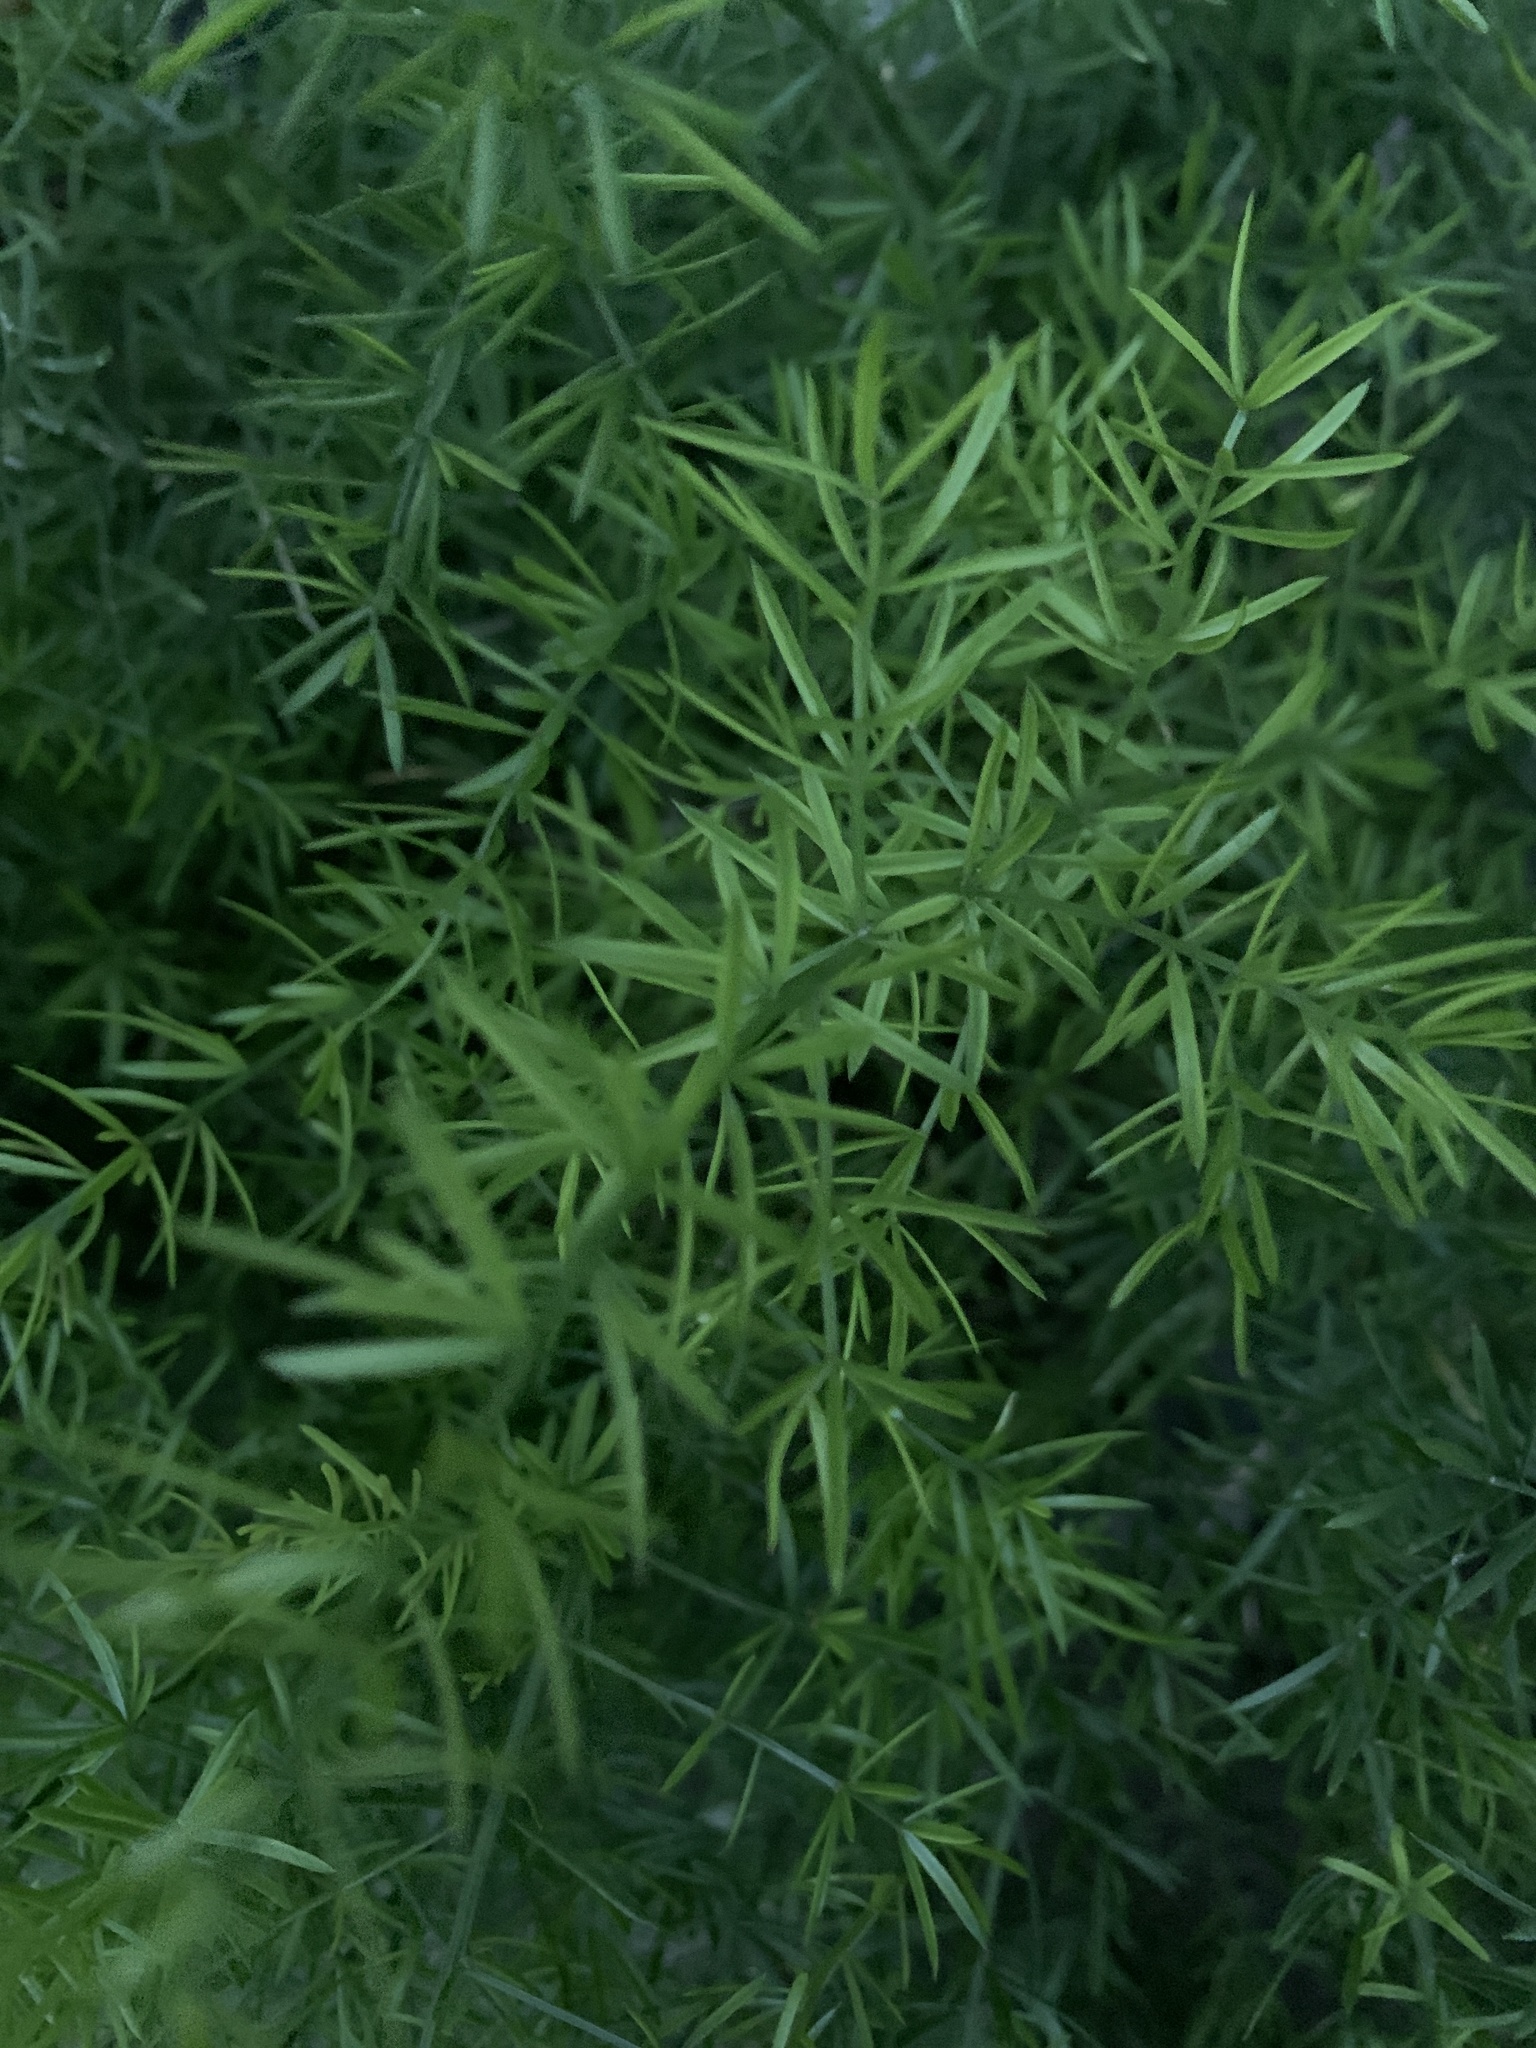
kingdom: Plantae
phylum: Tracheophyta
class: Liliopsida
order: Asparagales
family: Asparagaceae
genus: Asparagus
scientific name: Asparagus aethiopicus
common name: Sprenger's asparagus fern
